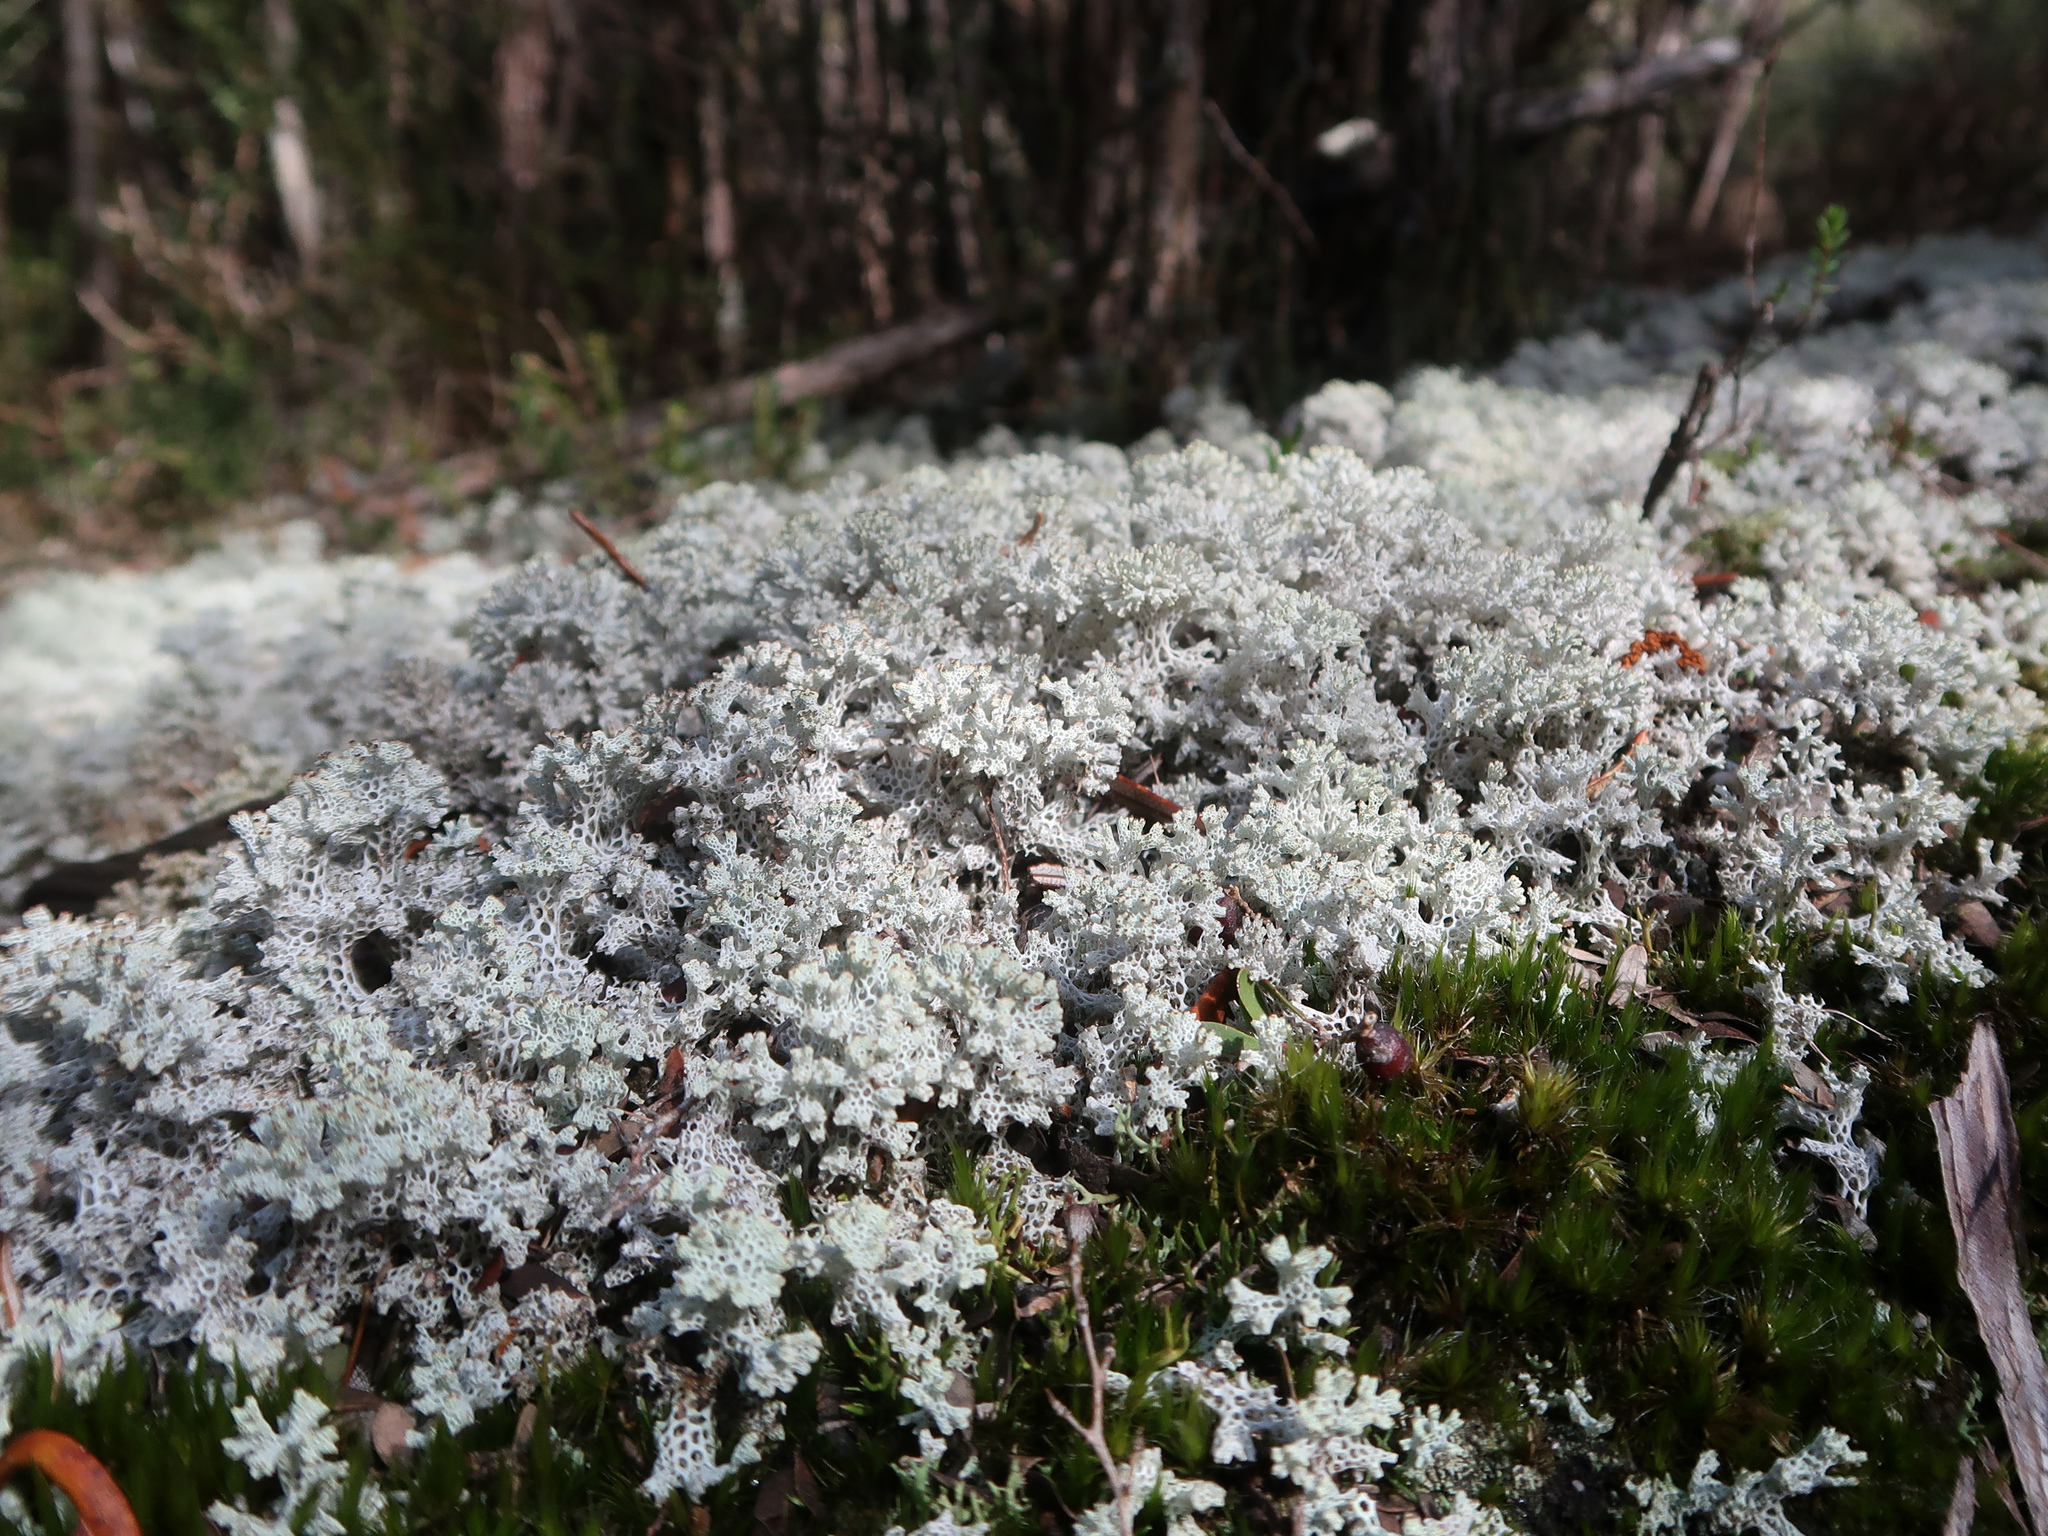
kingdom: Fungi
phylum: Ascomycota
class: Lecanoromycetes
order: Lecanorales
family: Cladoniaceae
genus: Pulchrocladia
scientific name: Pulchrocladia retipora
